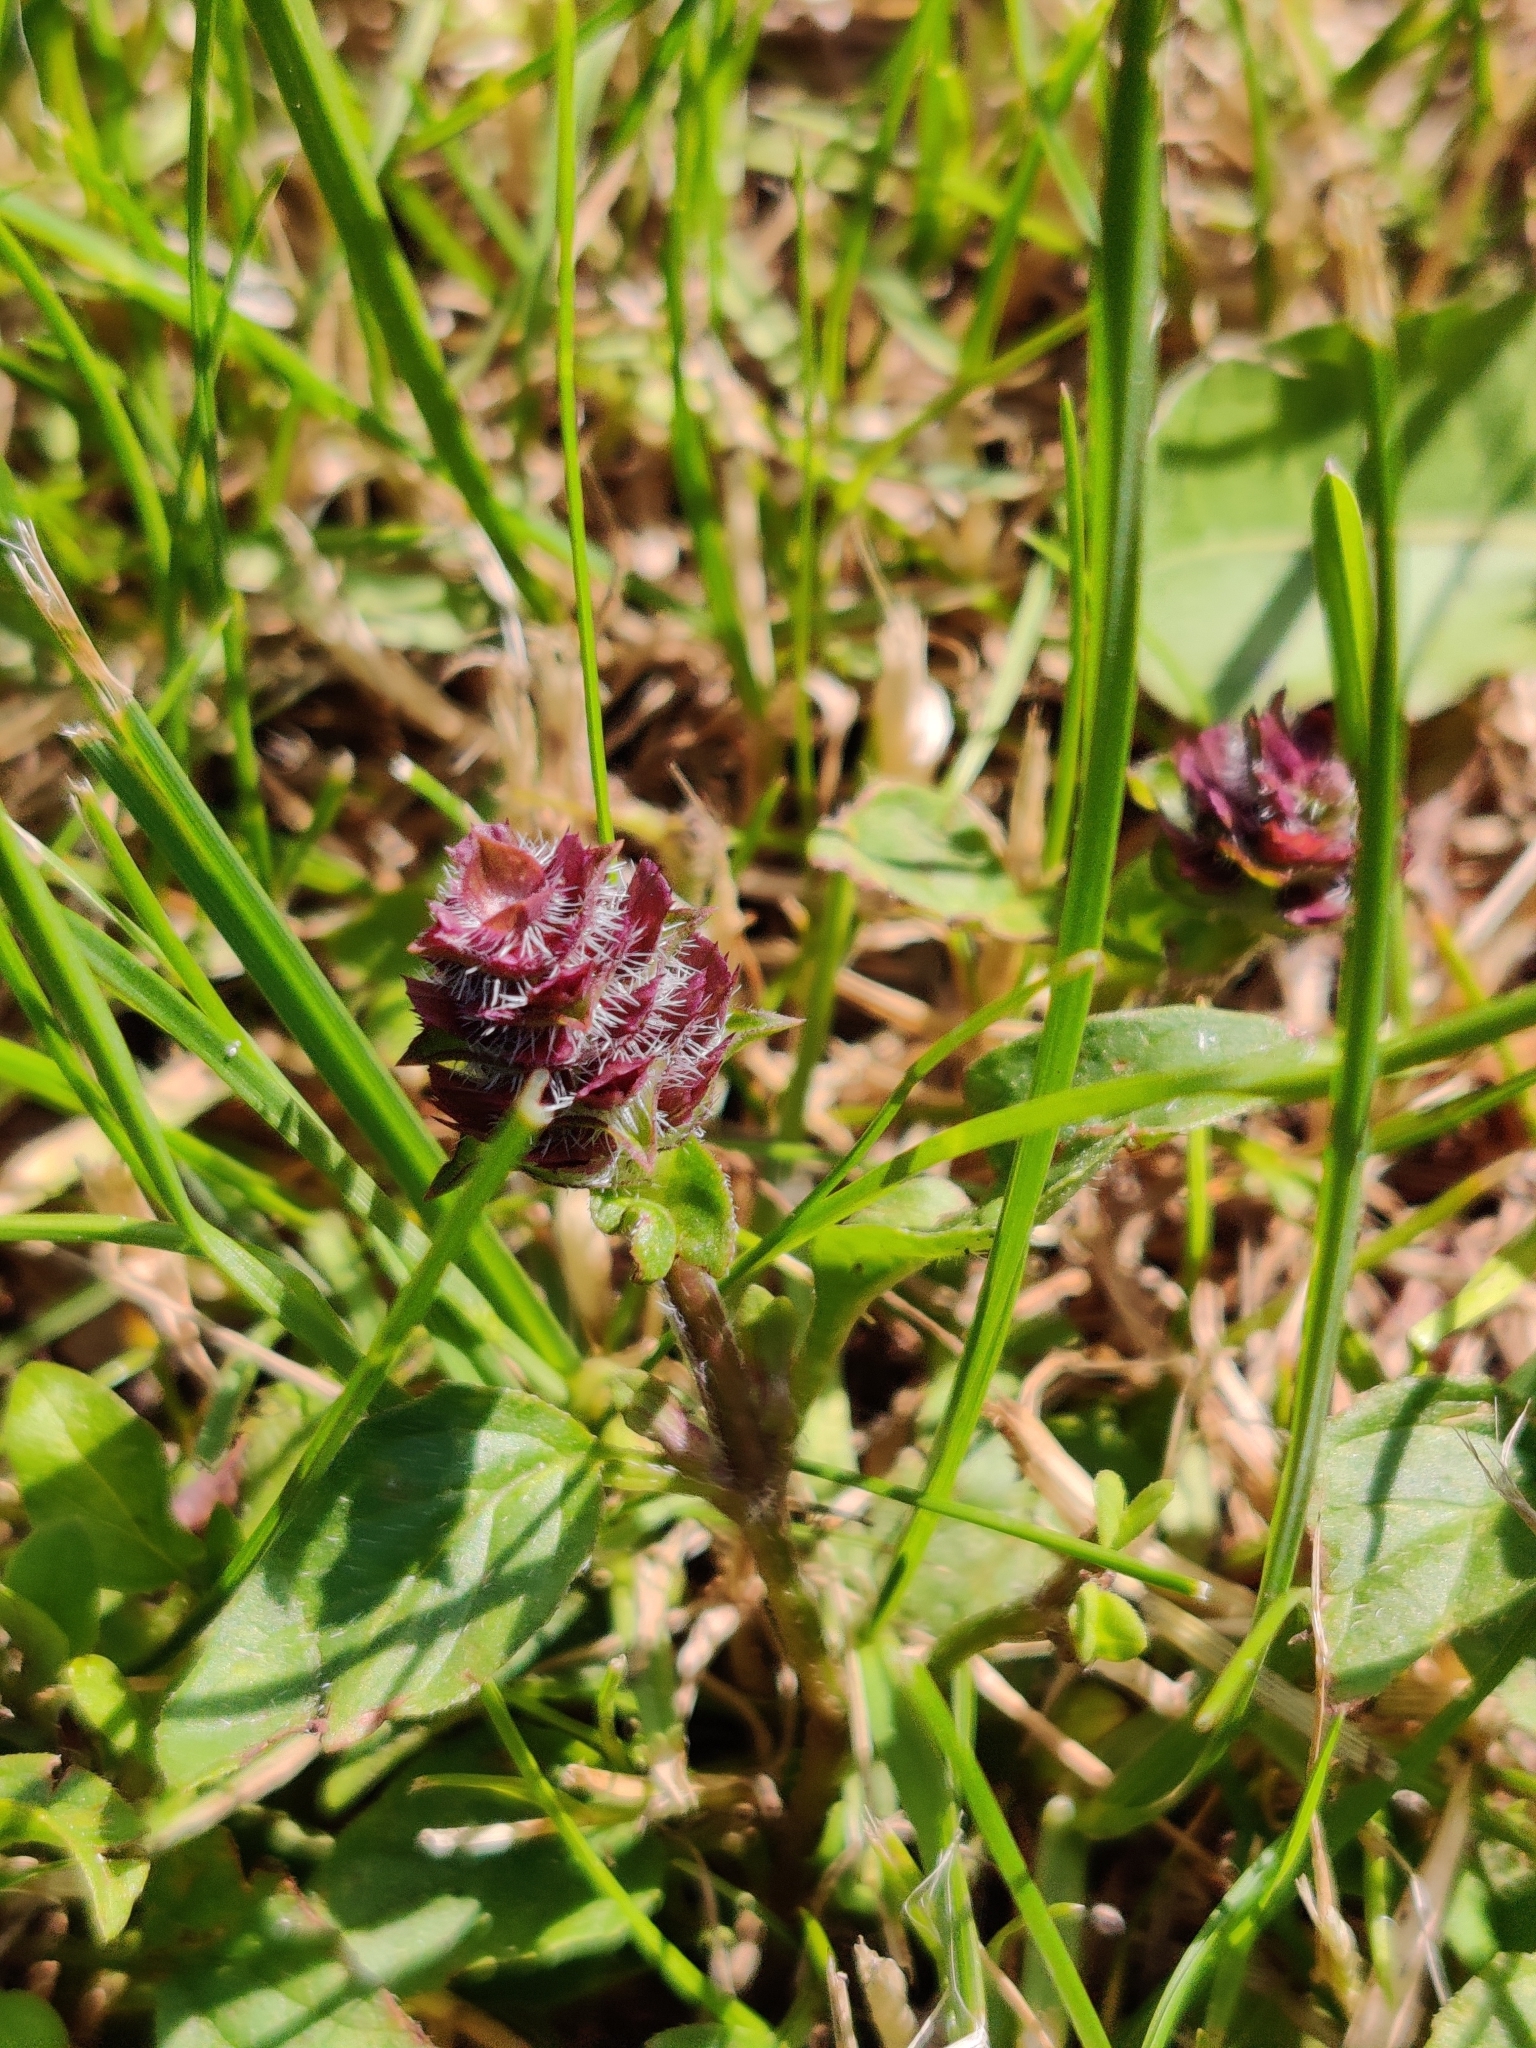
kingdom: Plantae
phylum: Tracheophyta
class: Magnoliopsida
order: Lamiales
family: Lamiaceae
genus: Prunella
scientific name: Prunella vulgaris
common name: Heal-all
